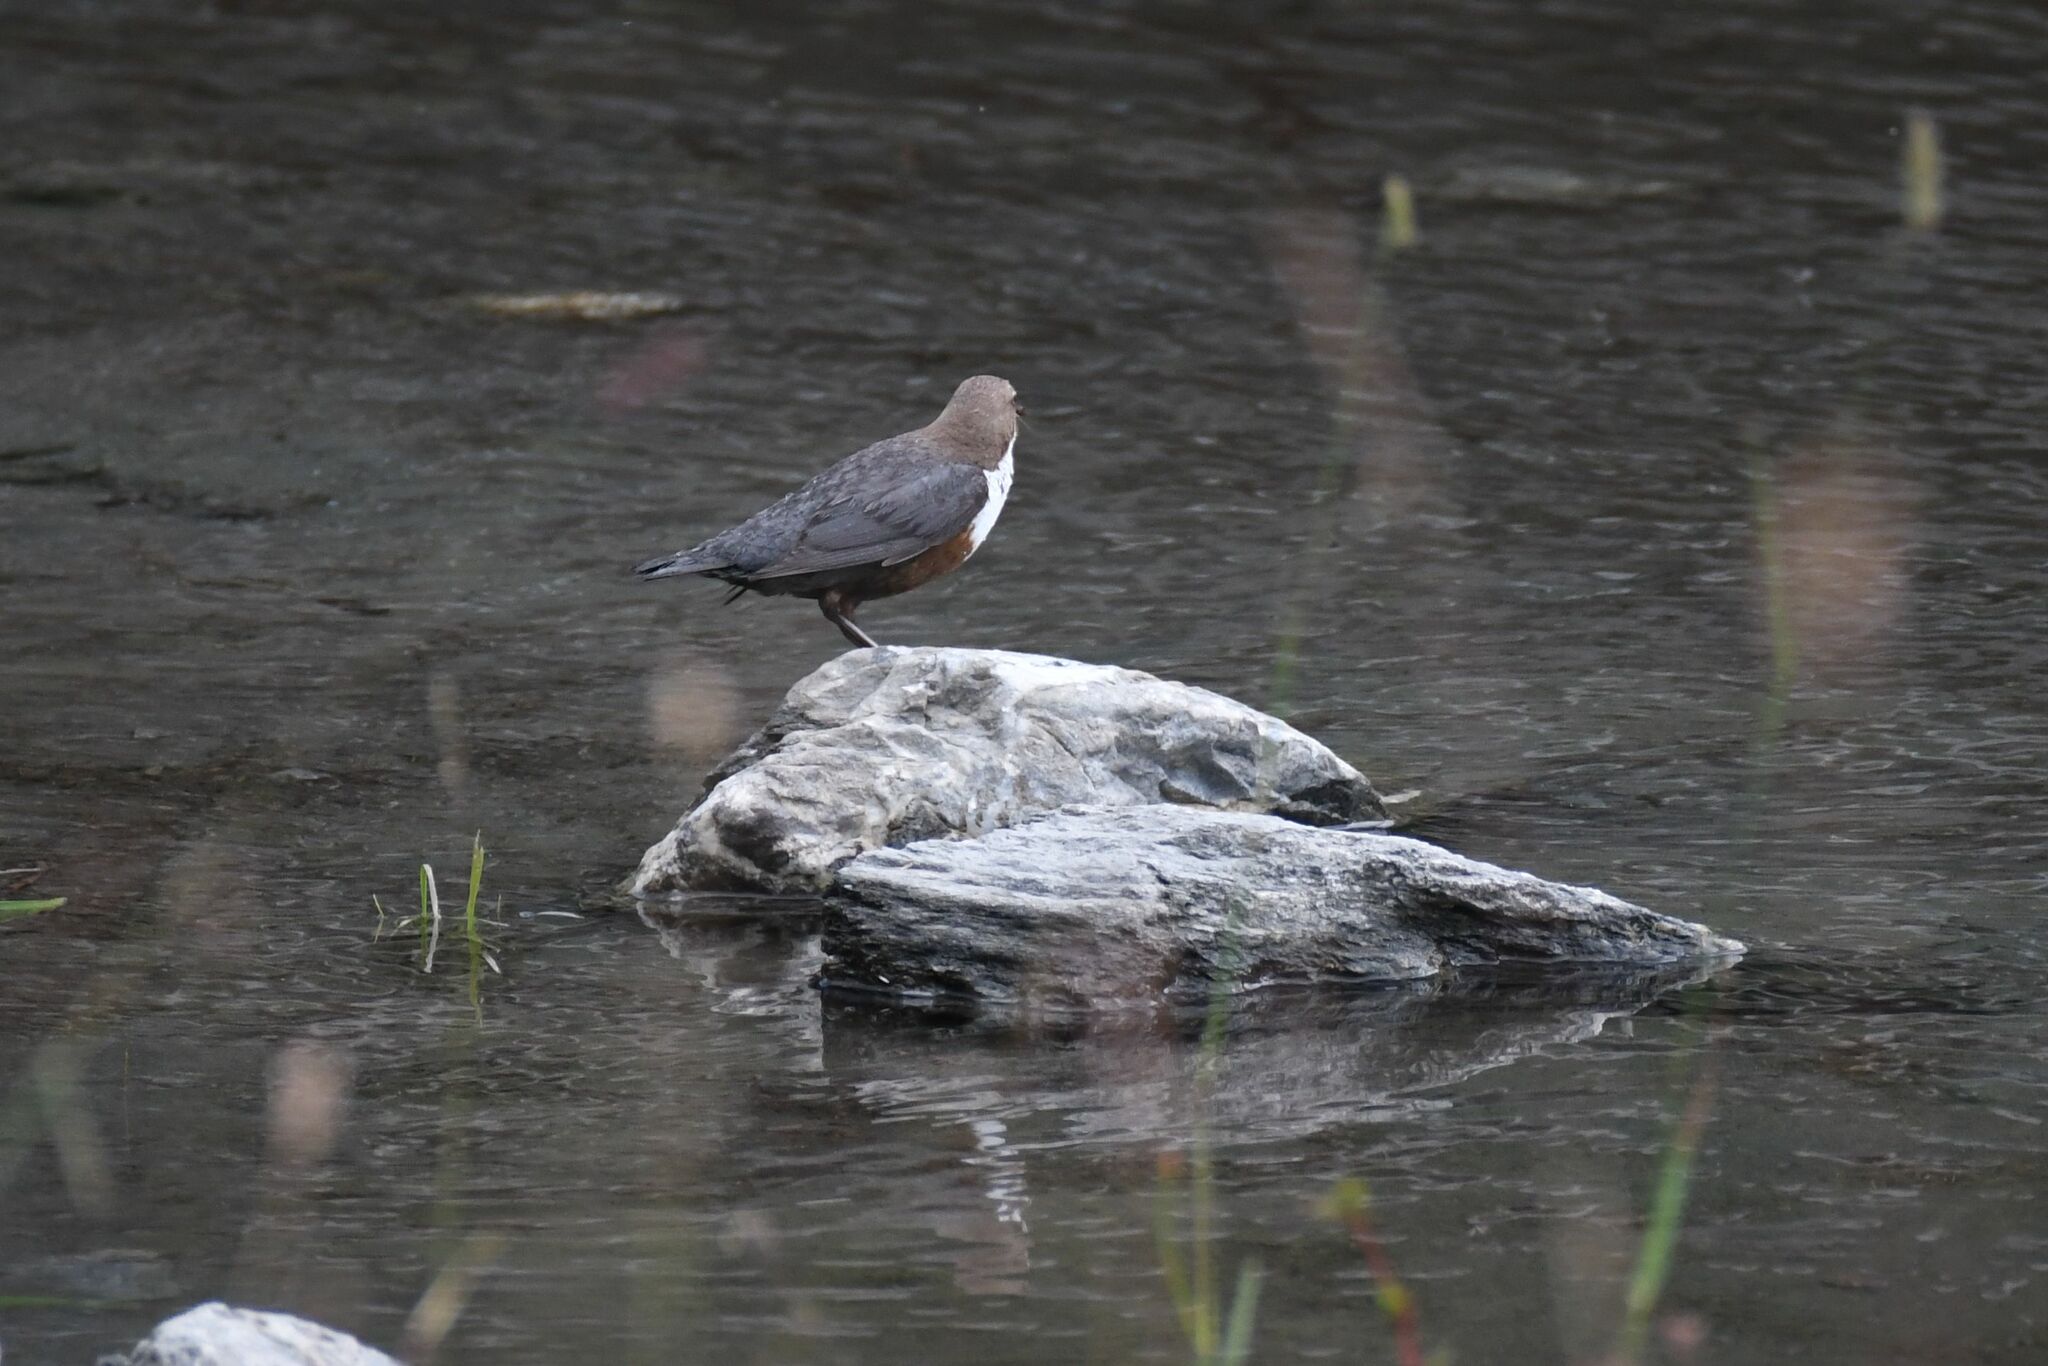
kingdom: Animalia
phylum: Chordata
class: Aves
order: Passeriformes
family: Cinclidae
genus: Cinclus
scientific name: Cinclus cinclus
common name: White-throated dipper
